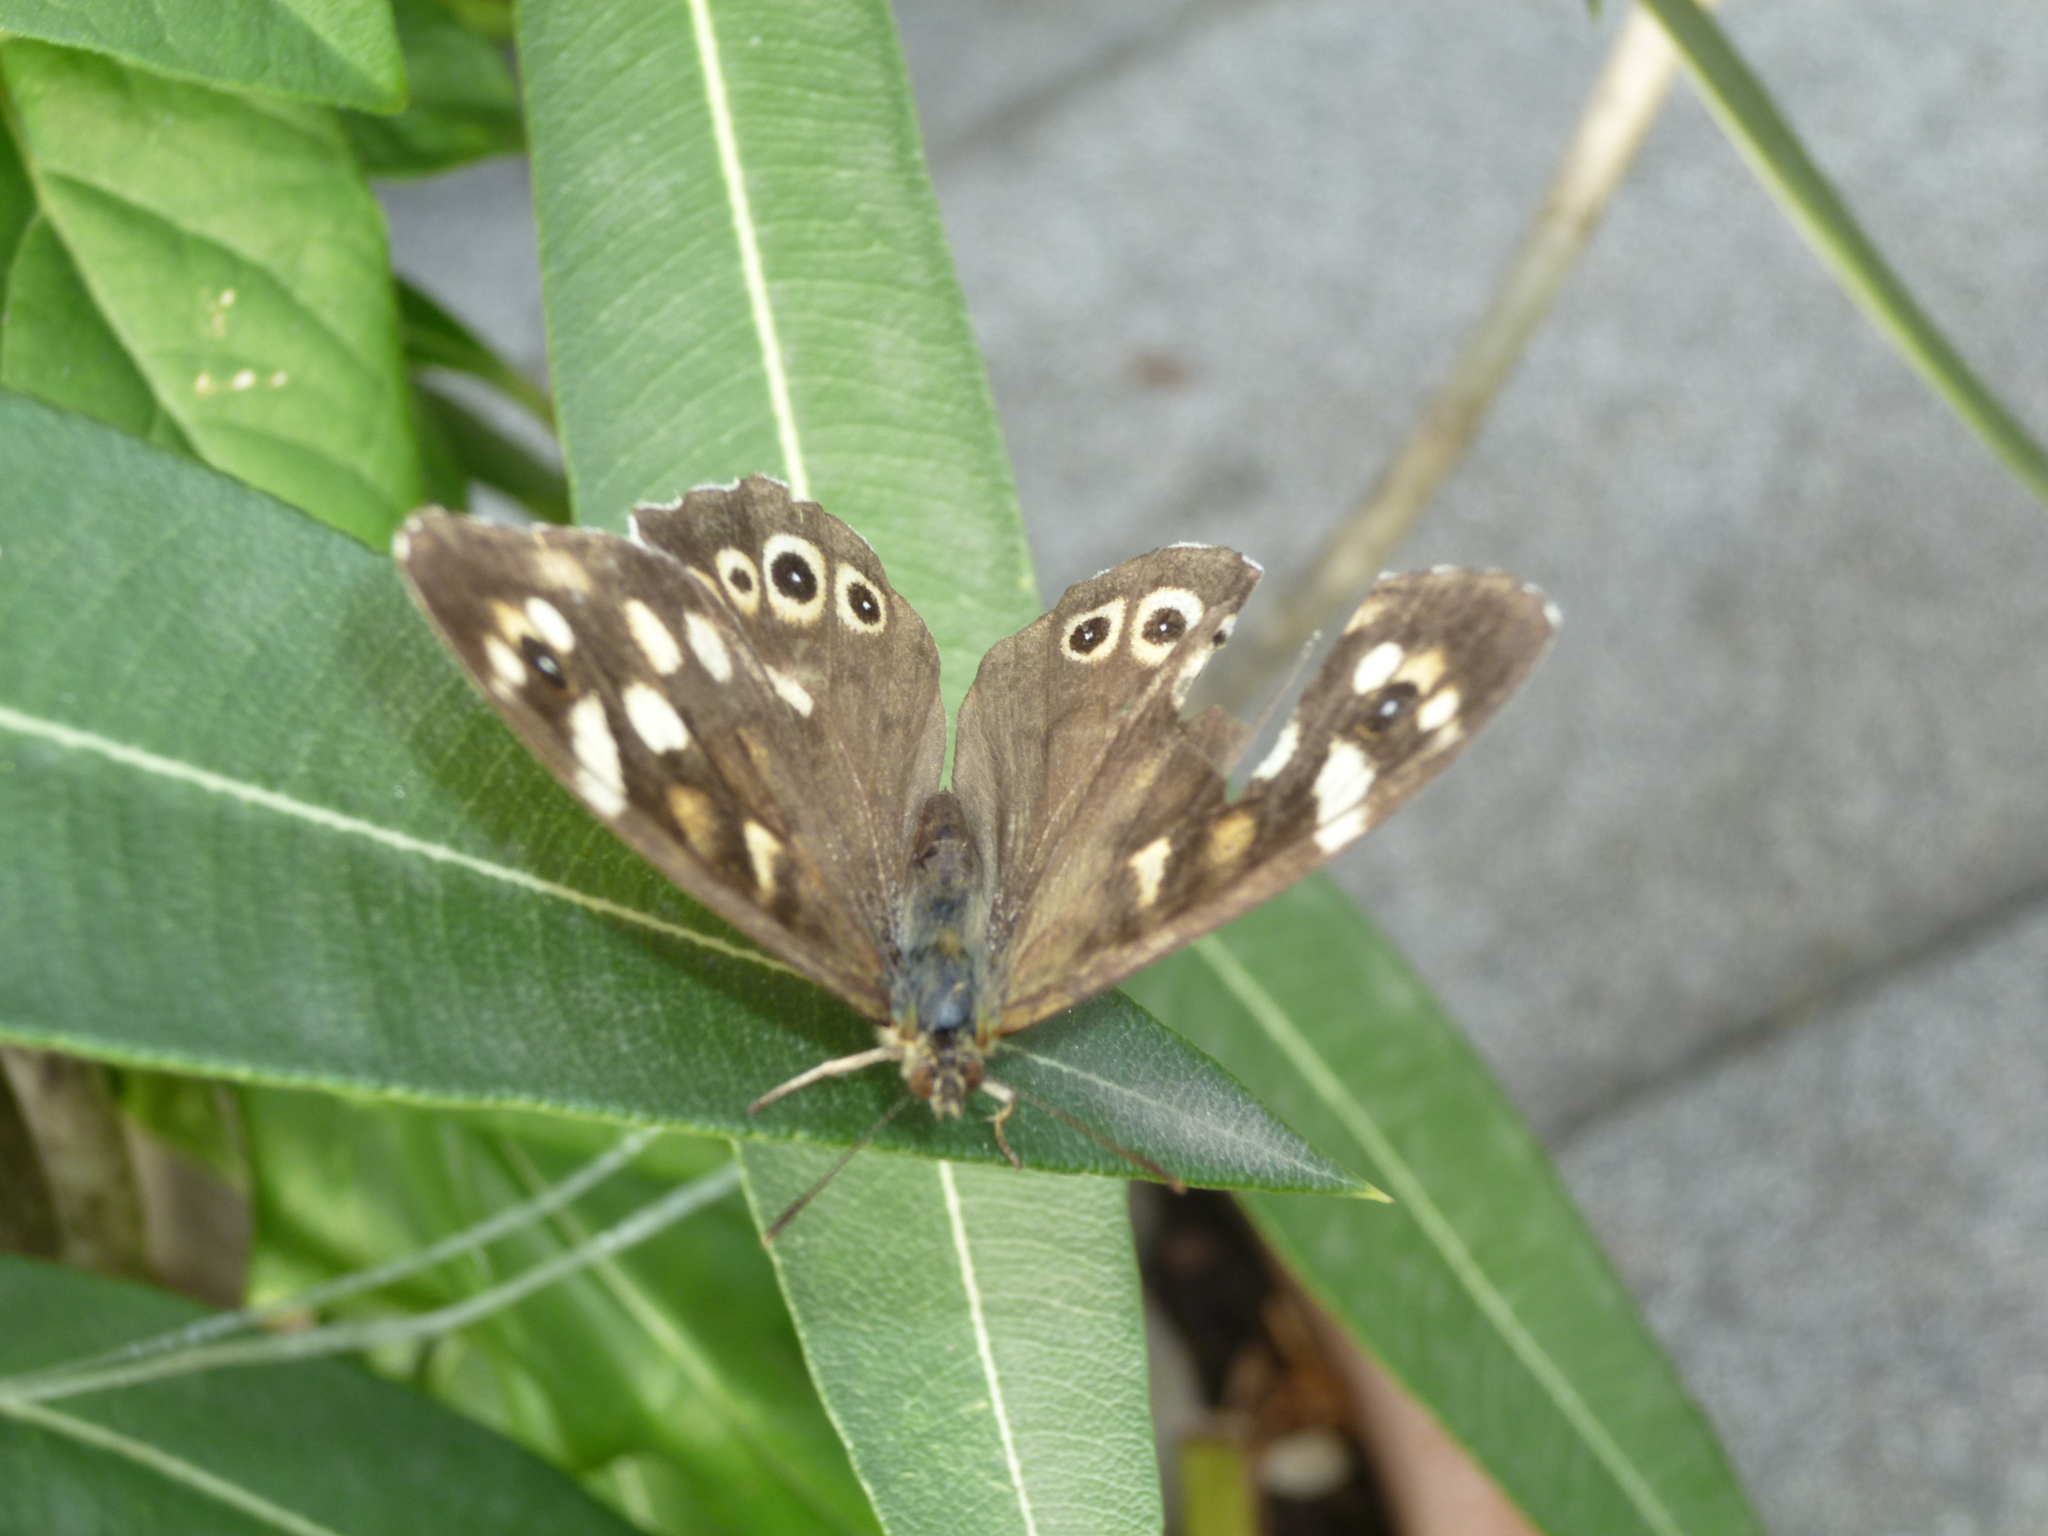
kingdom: Animalia
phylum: Arthropoda
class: Insecta
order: Lepidoptera
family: Nymphalidae
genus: Pararge
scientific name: Pararge aegeria
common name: Speckled wood
